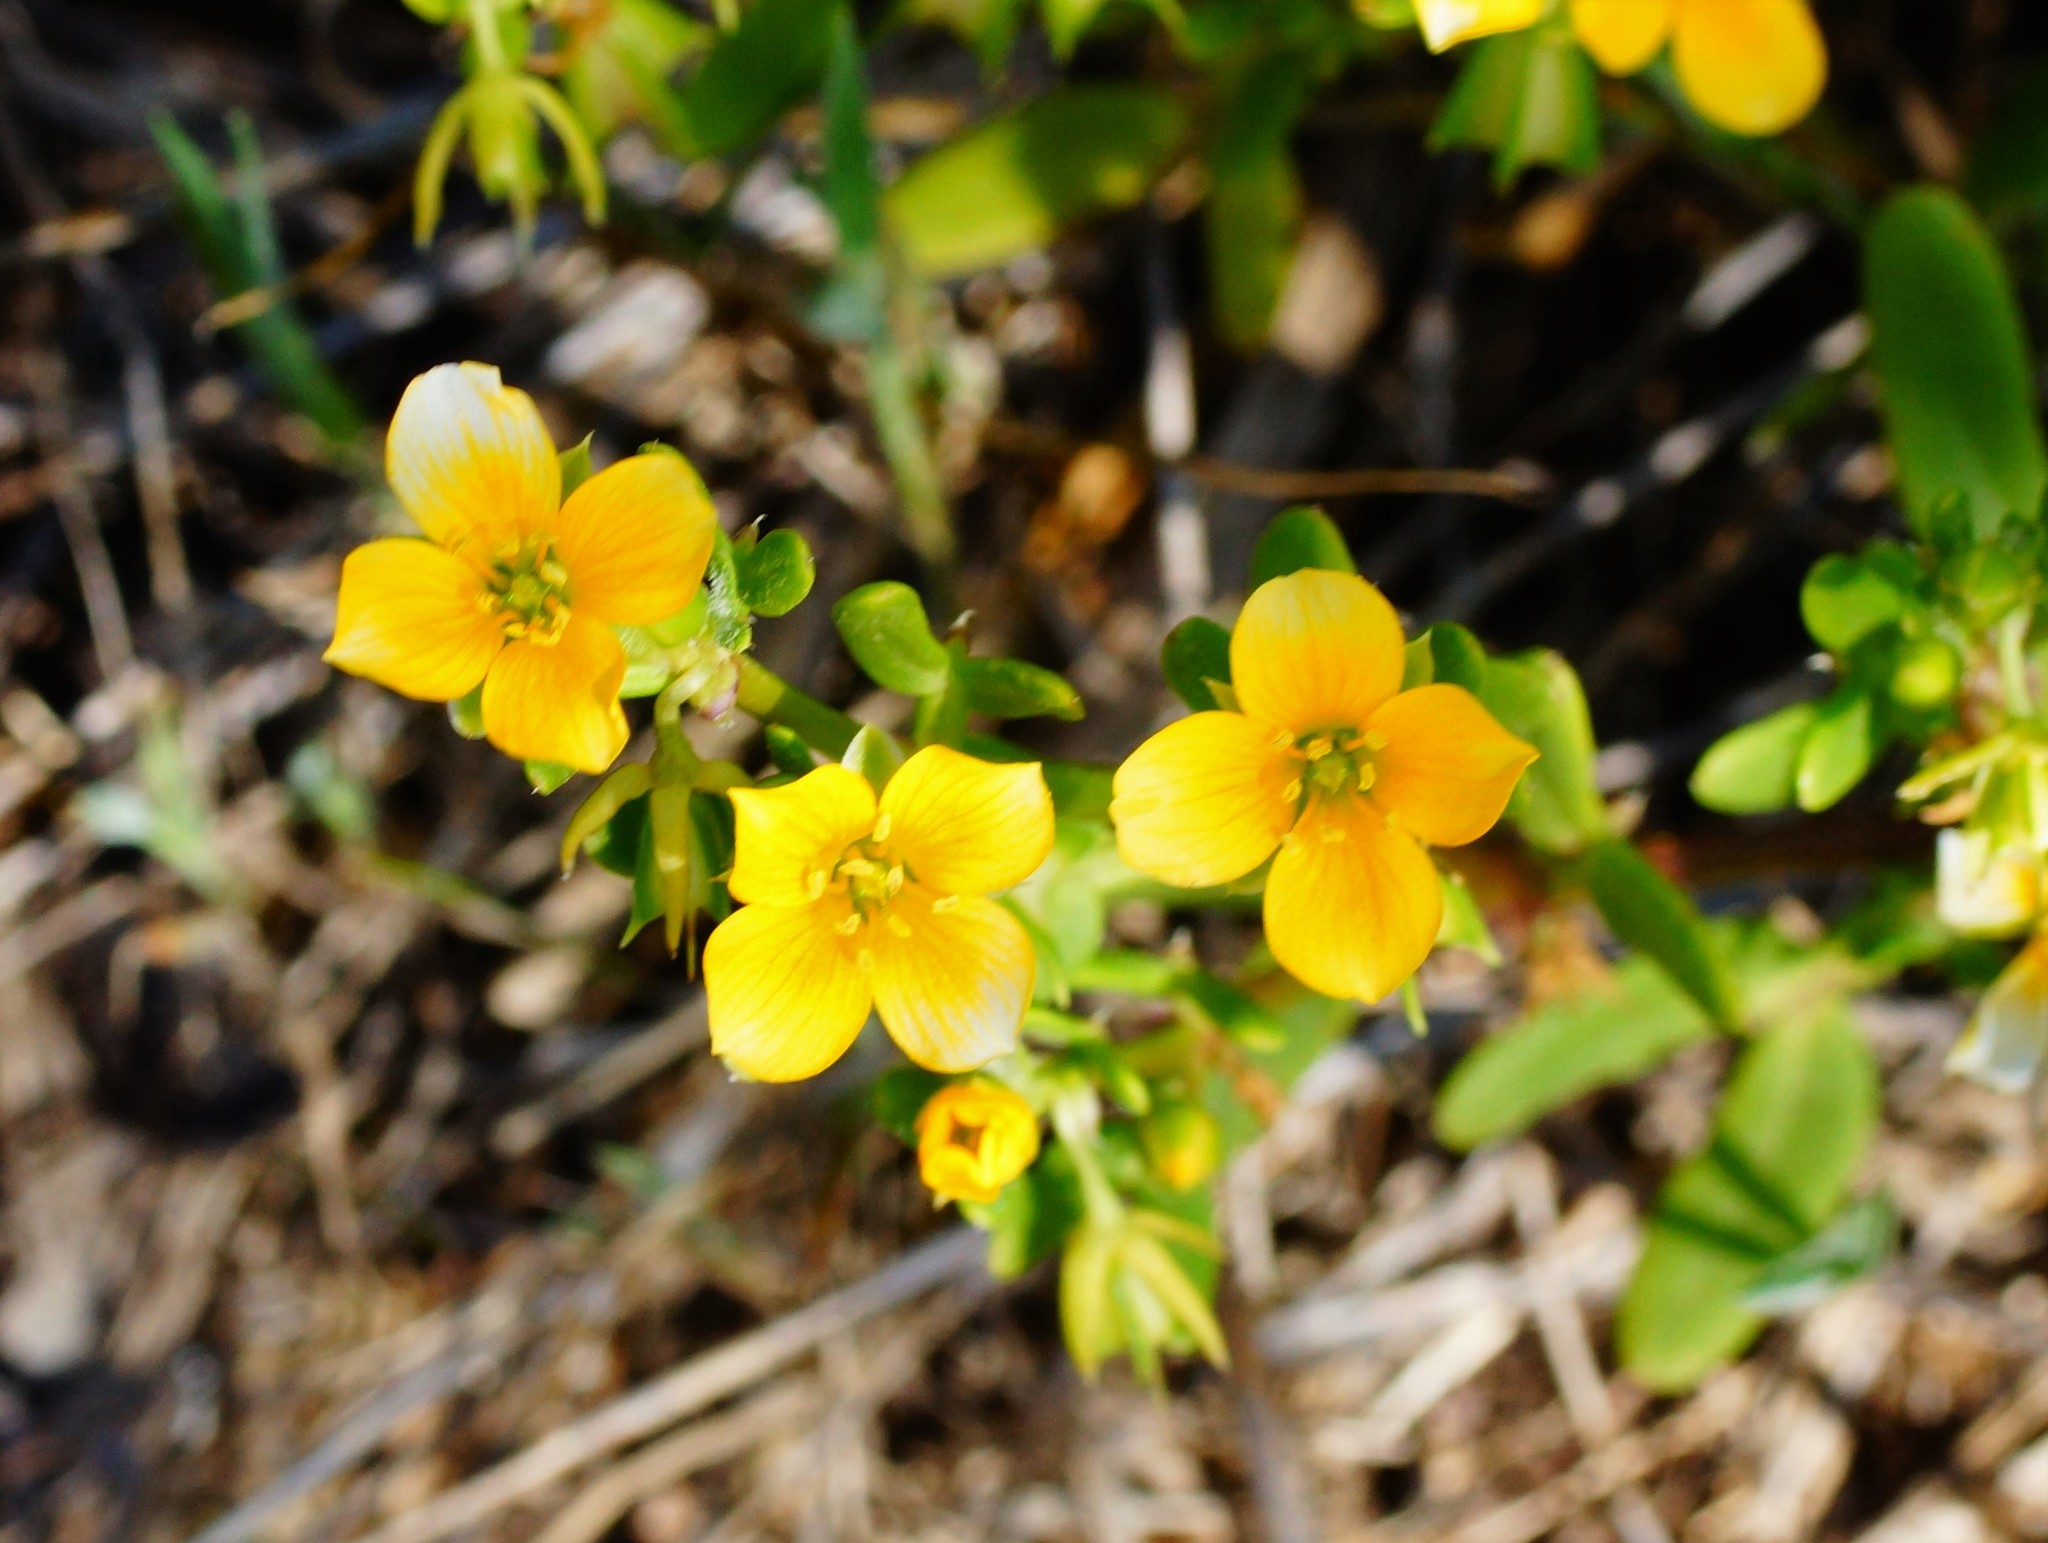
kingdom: Plantae
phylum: Tracheophyta
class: Magnoliopsida
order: Zygophyllales
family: Zygophyllaceae
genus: Roepera
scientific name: Roepera billardieri
